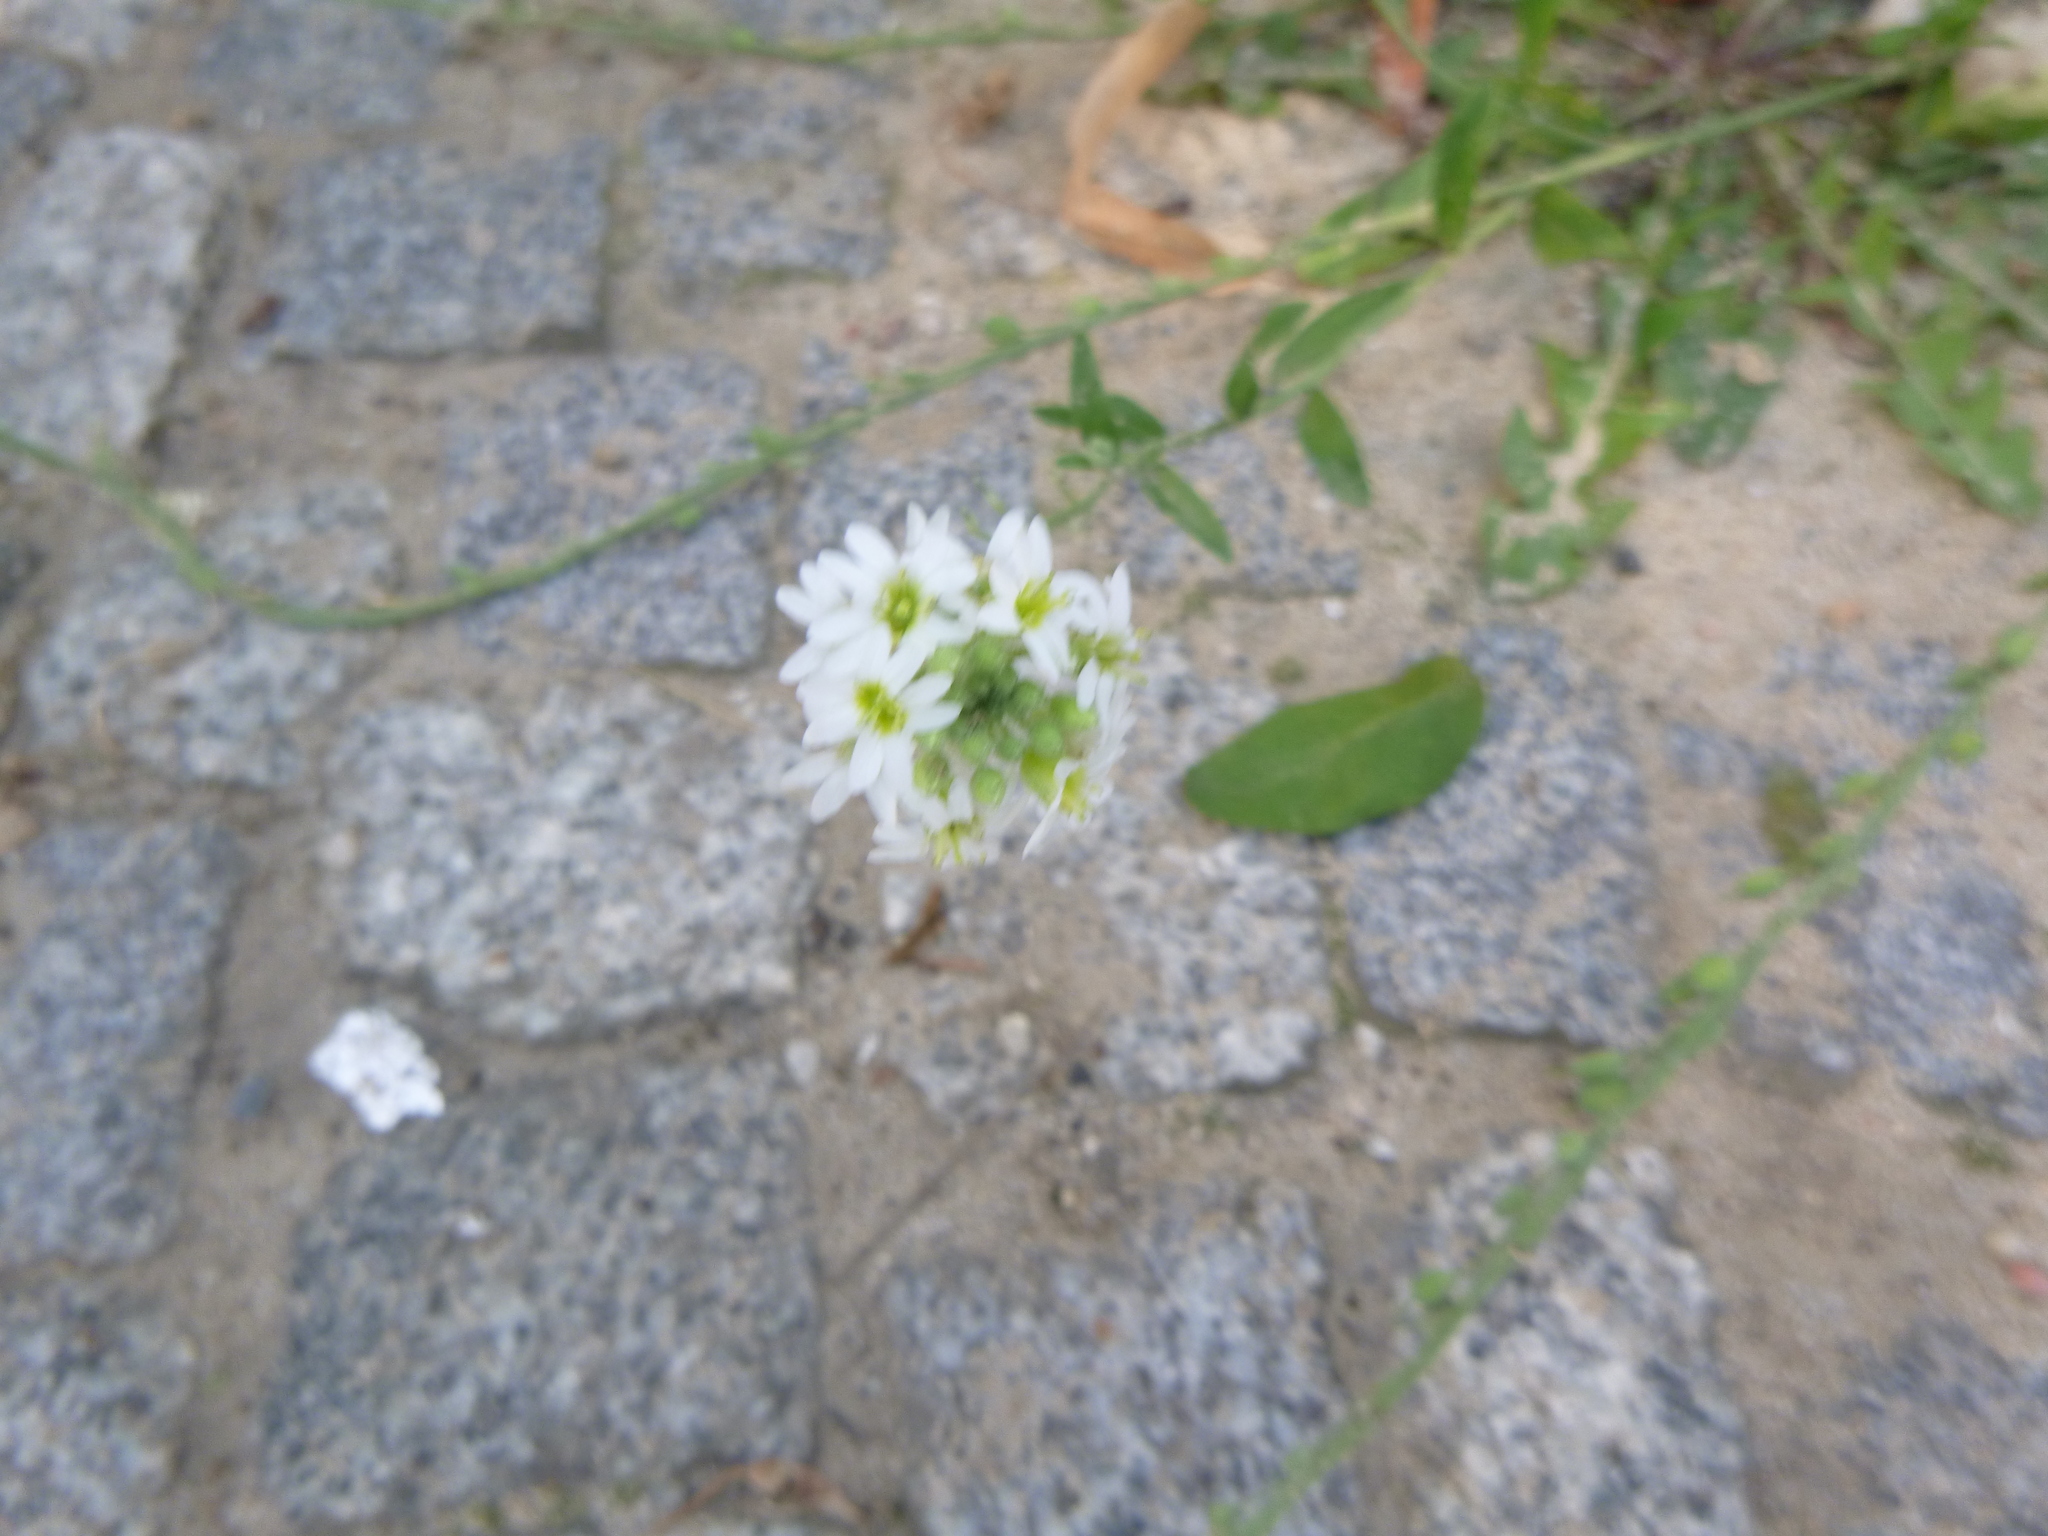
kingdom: Plantae
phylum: Tracheophyta
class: Magnoliopsida
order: Brassicales
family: Brassicaceae
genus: Berteroa
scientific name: Berteroa incana
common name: Hoary alison
